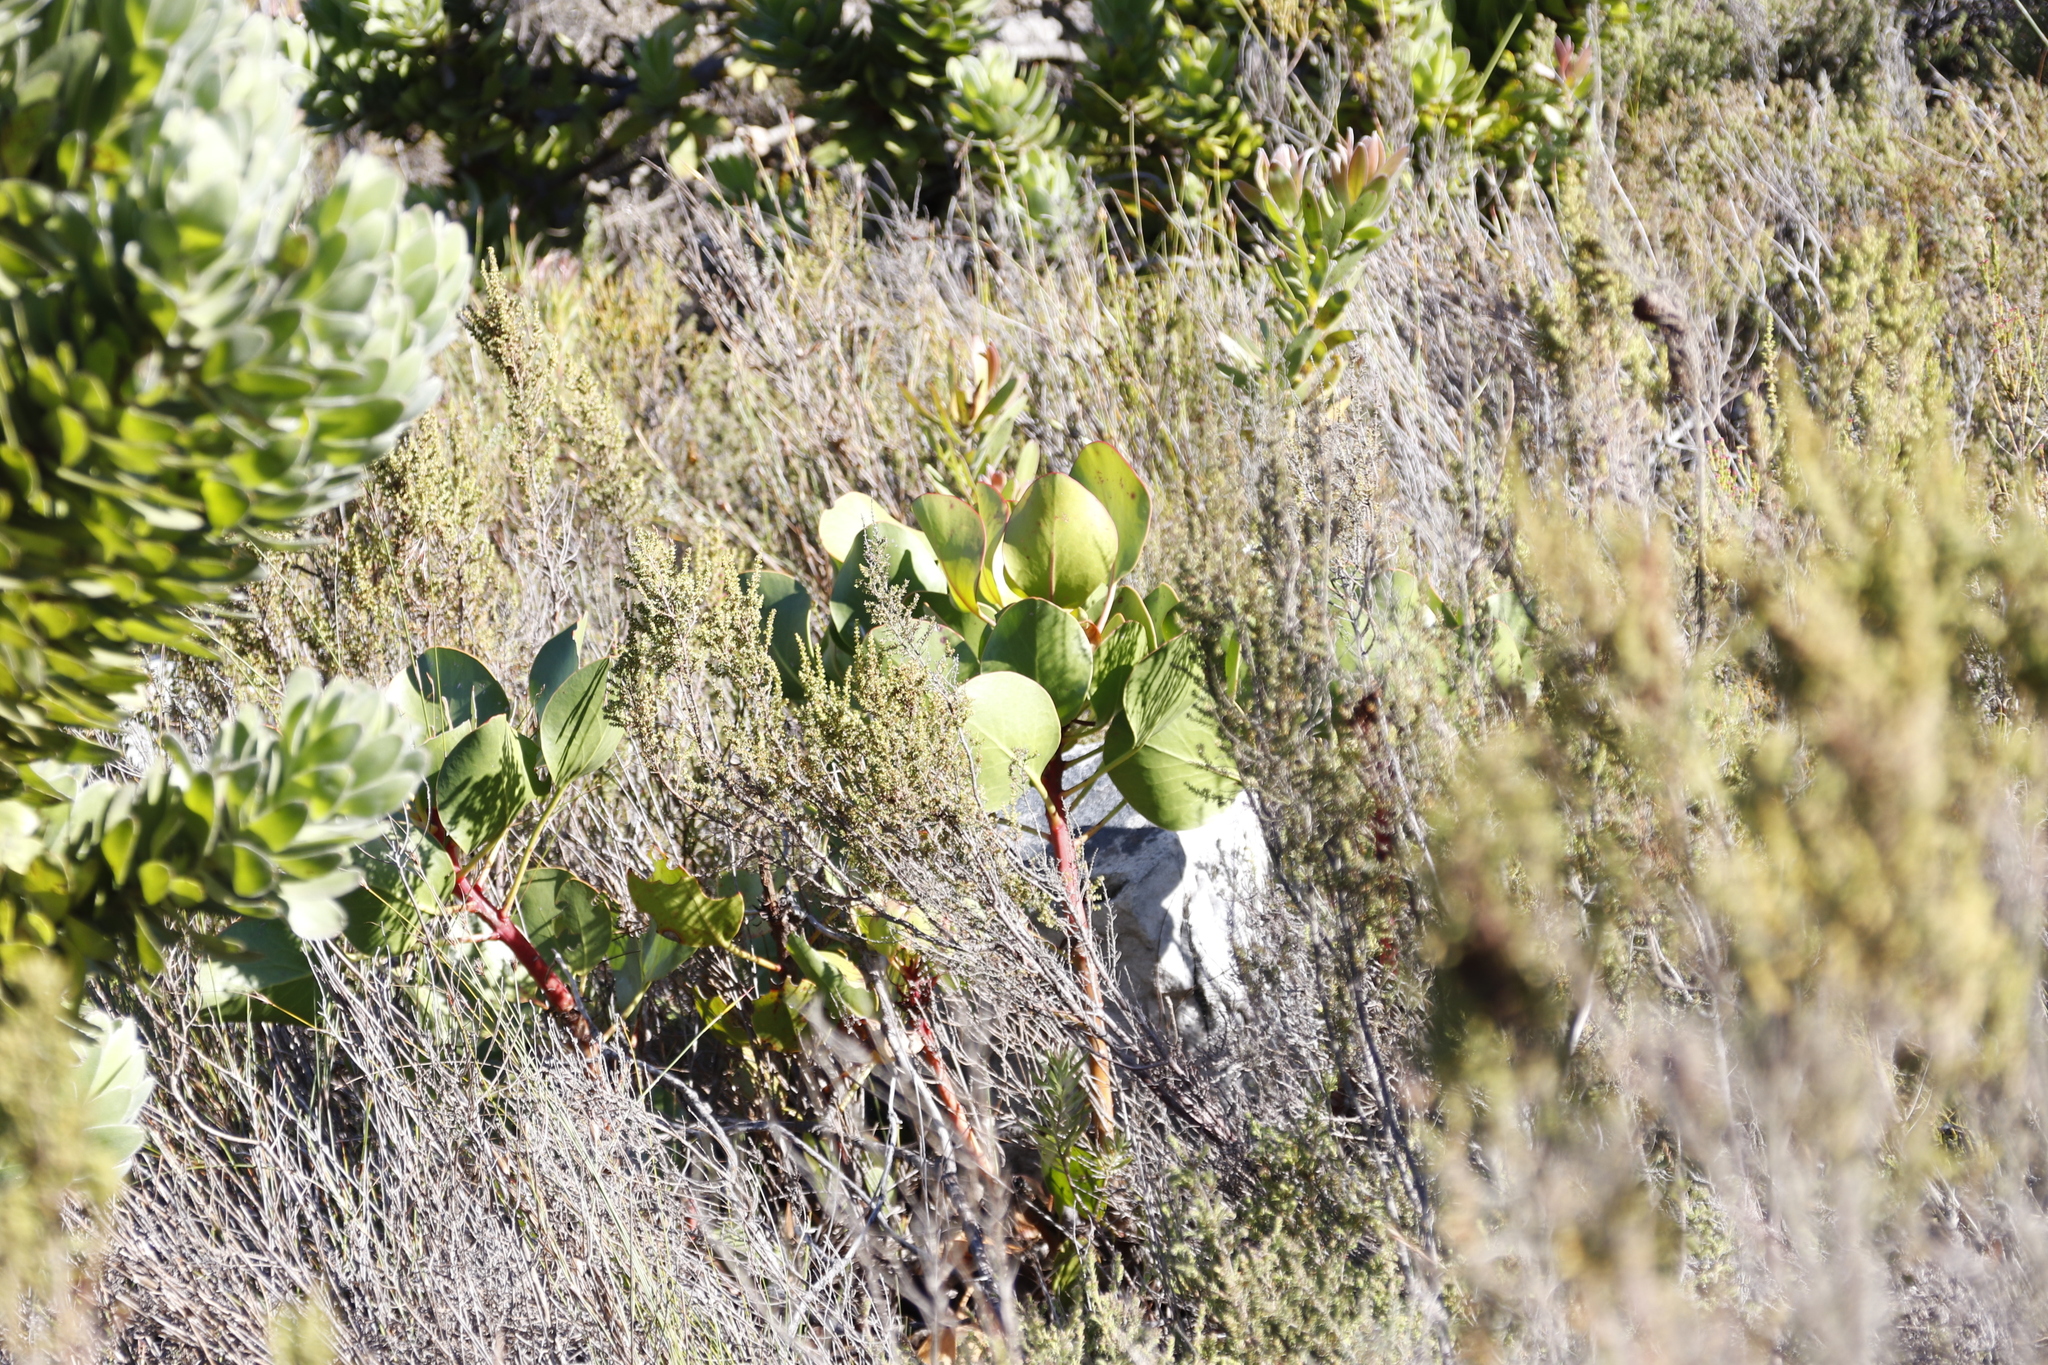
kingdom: Plantae
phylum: Tracheophyta
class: Magnoliopsida
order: Proteales
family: Proteaceae
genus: Protea
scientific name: Protea cynaroides
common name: King protea
